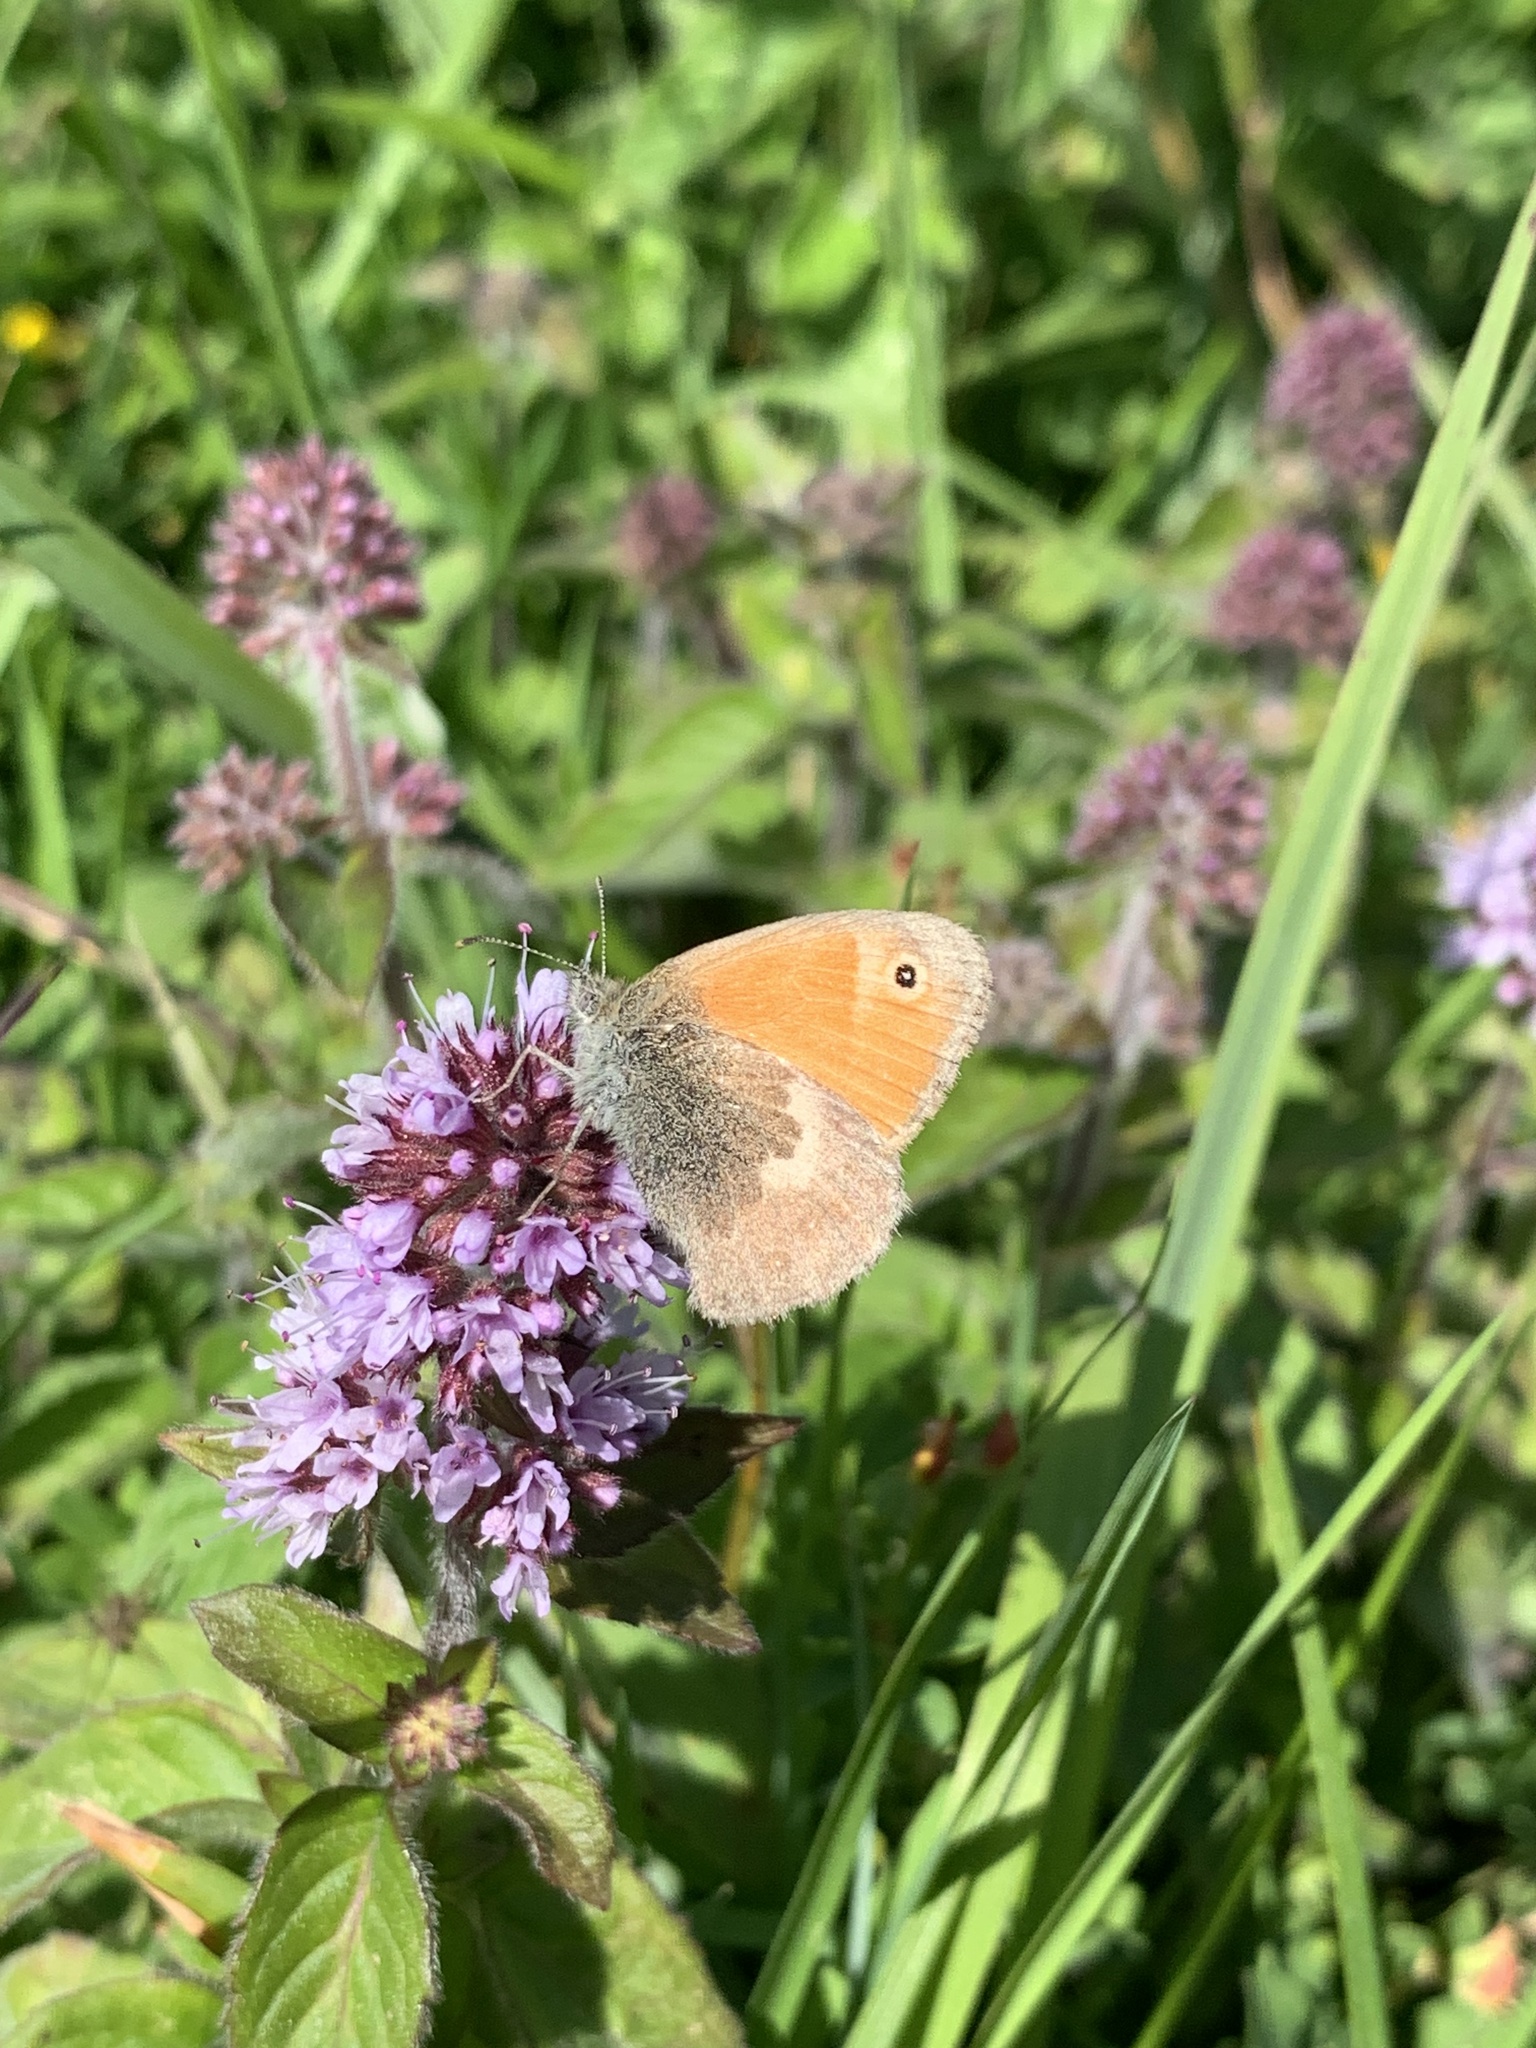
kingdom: Animalia
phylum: Arthropoda
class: Insecta
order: Lepidoptera
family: Nymphalidae
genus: Coenonympha
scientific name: Coenonympha pamphilus
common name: Small heath
